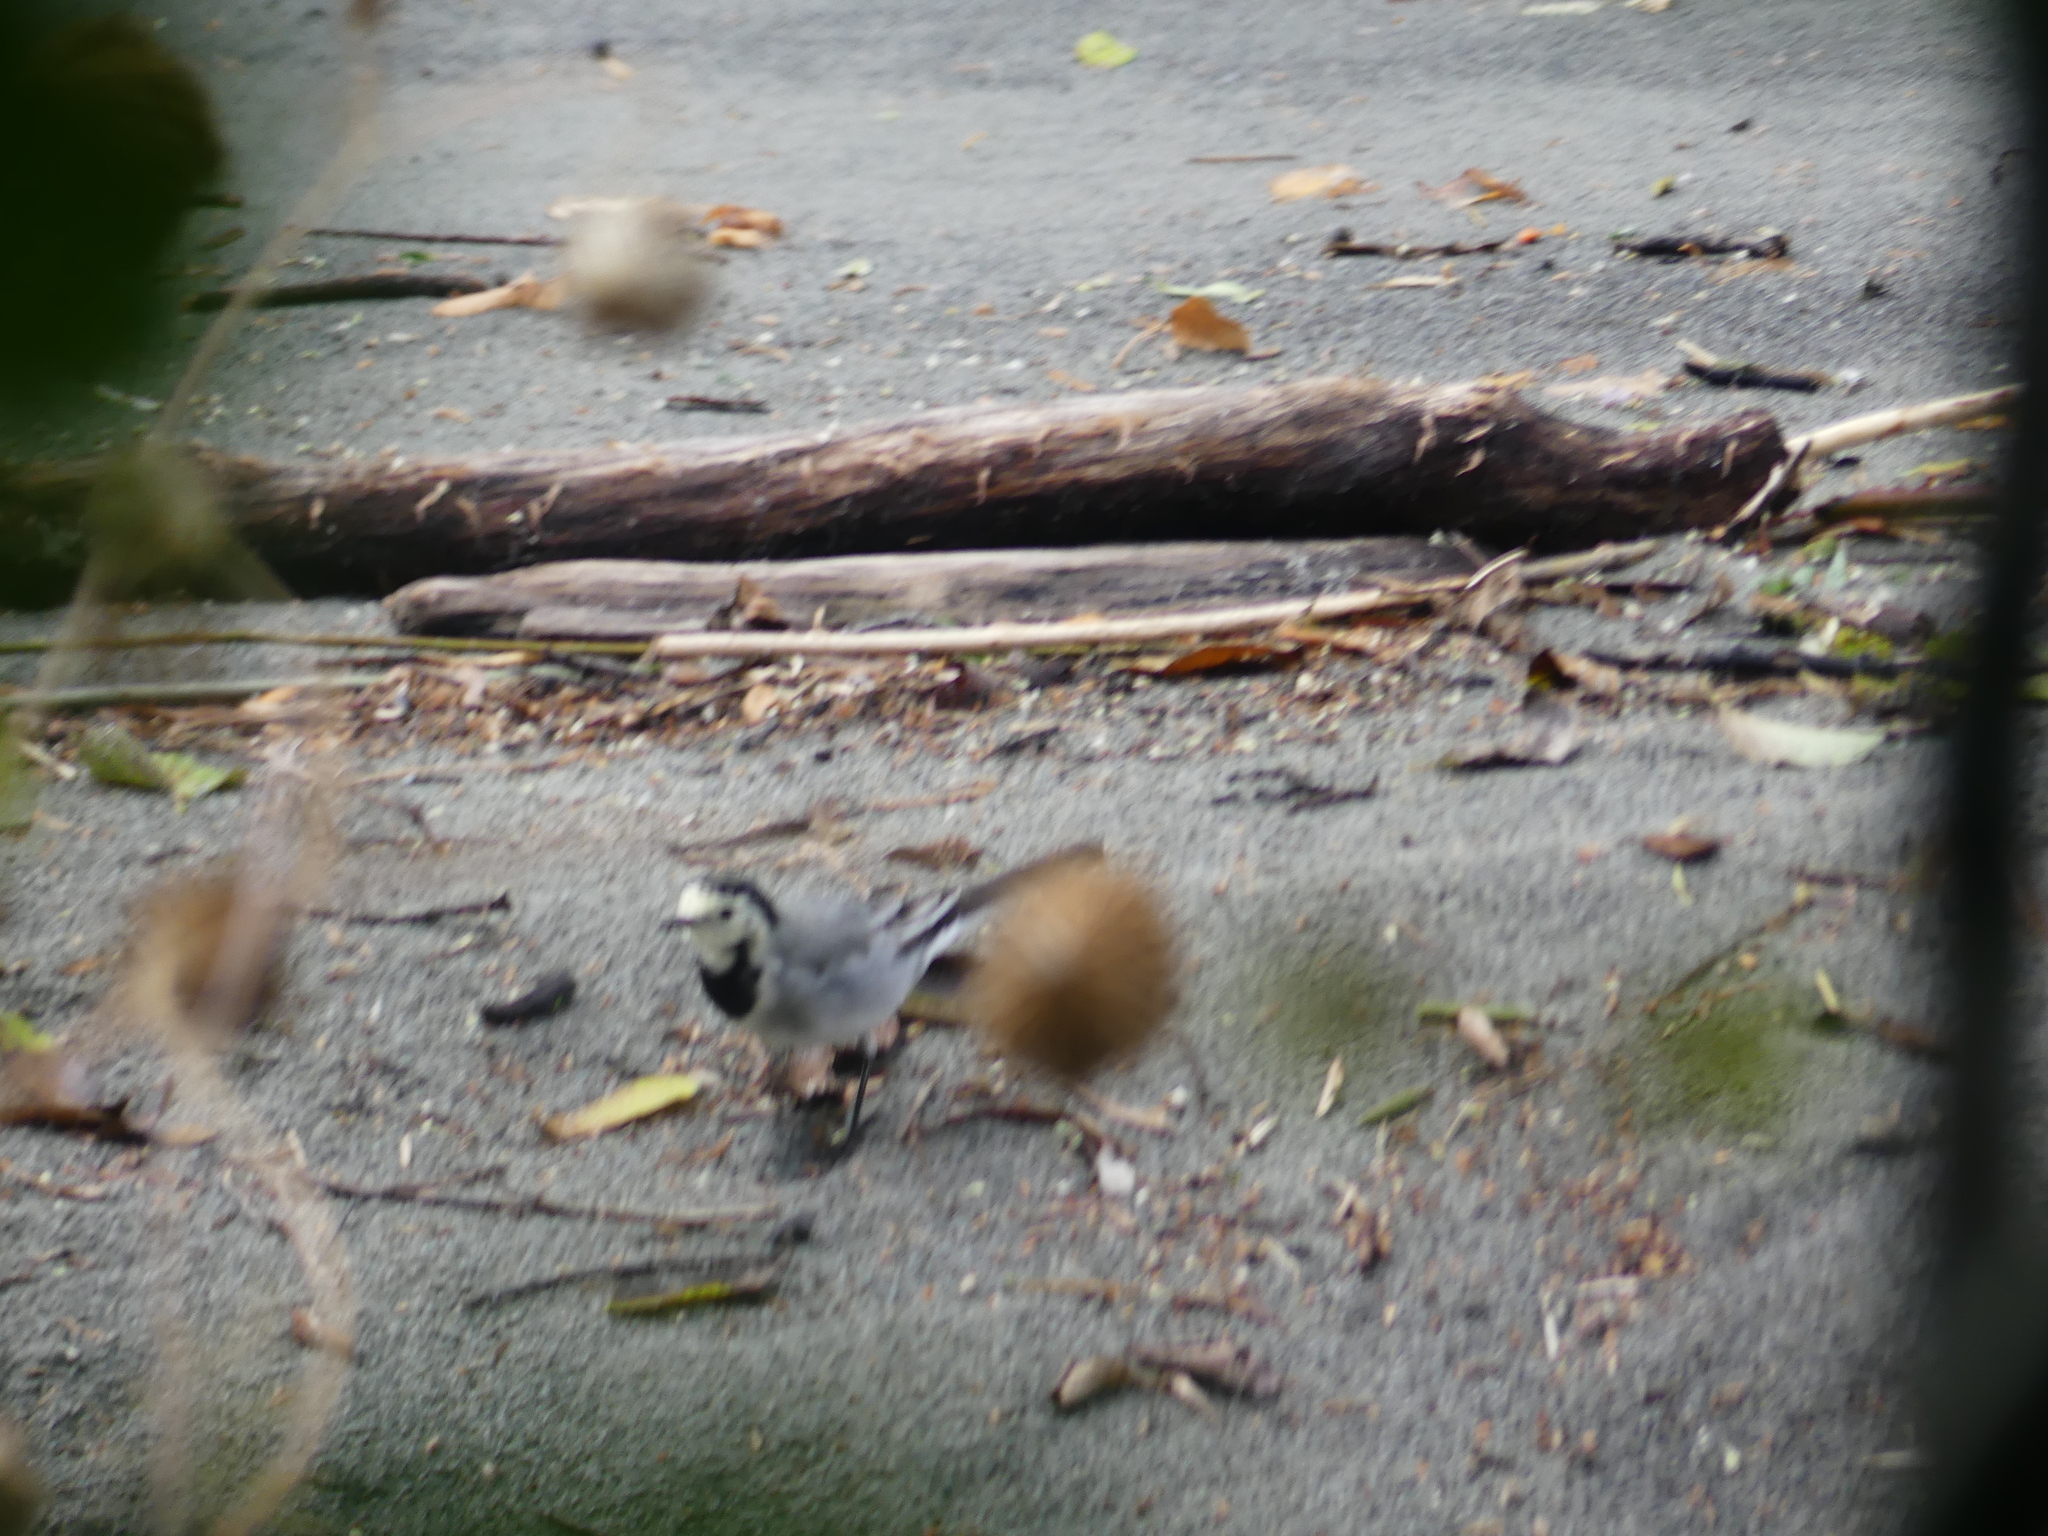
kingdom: Animalia
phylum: Chordata
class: Aves
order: Passeriformes
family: Motacillidae
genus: Motacilla
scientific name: Motacilla alba
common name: White wagtail
